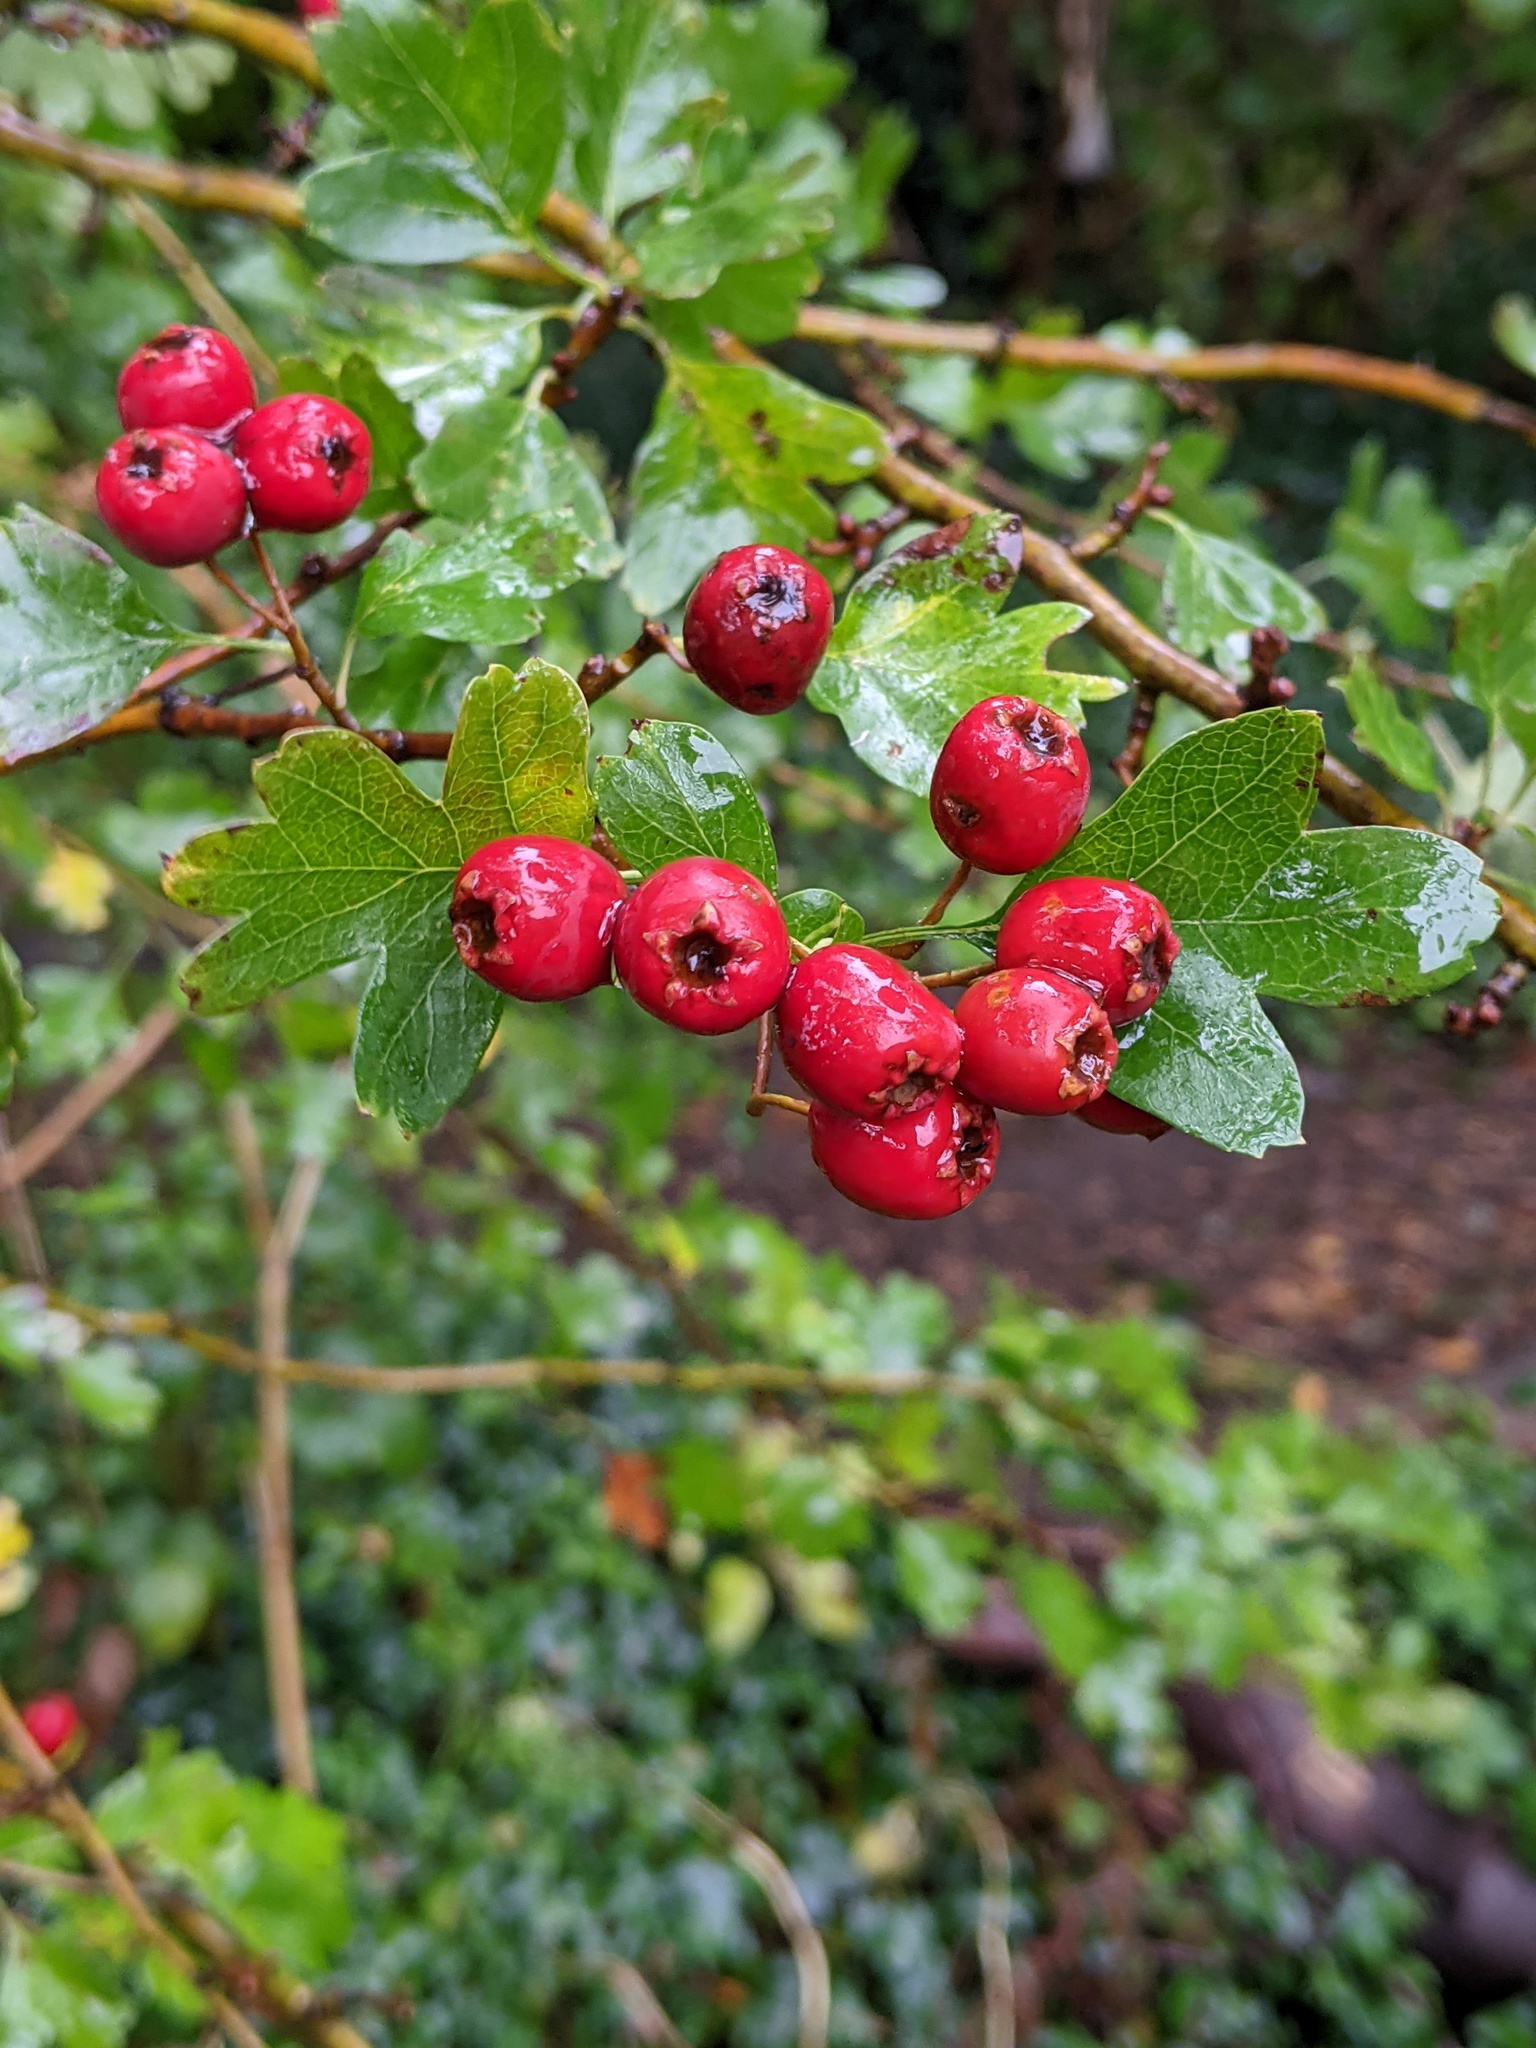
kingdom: Plantae
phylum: Tracheophyta
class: Magnoliopsida
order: Rosales
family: Rosaceae
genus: Crataegus
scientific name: Crataegus monogyna
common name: Hawthorn
